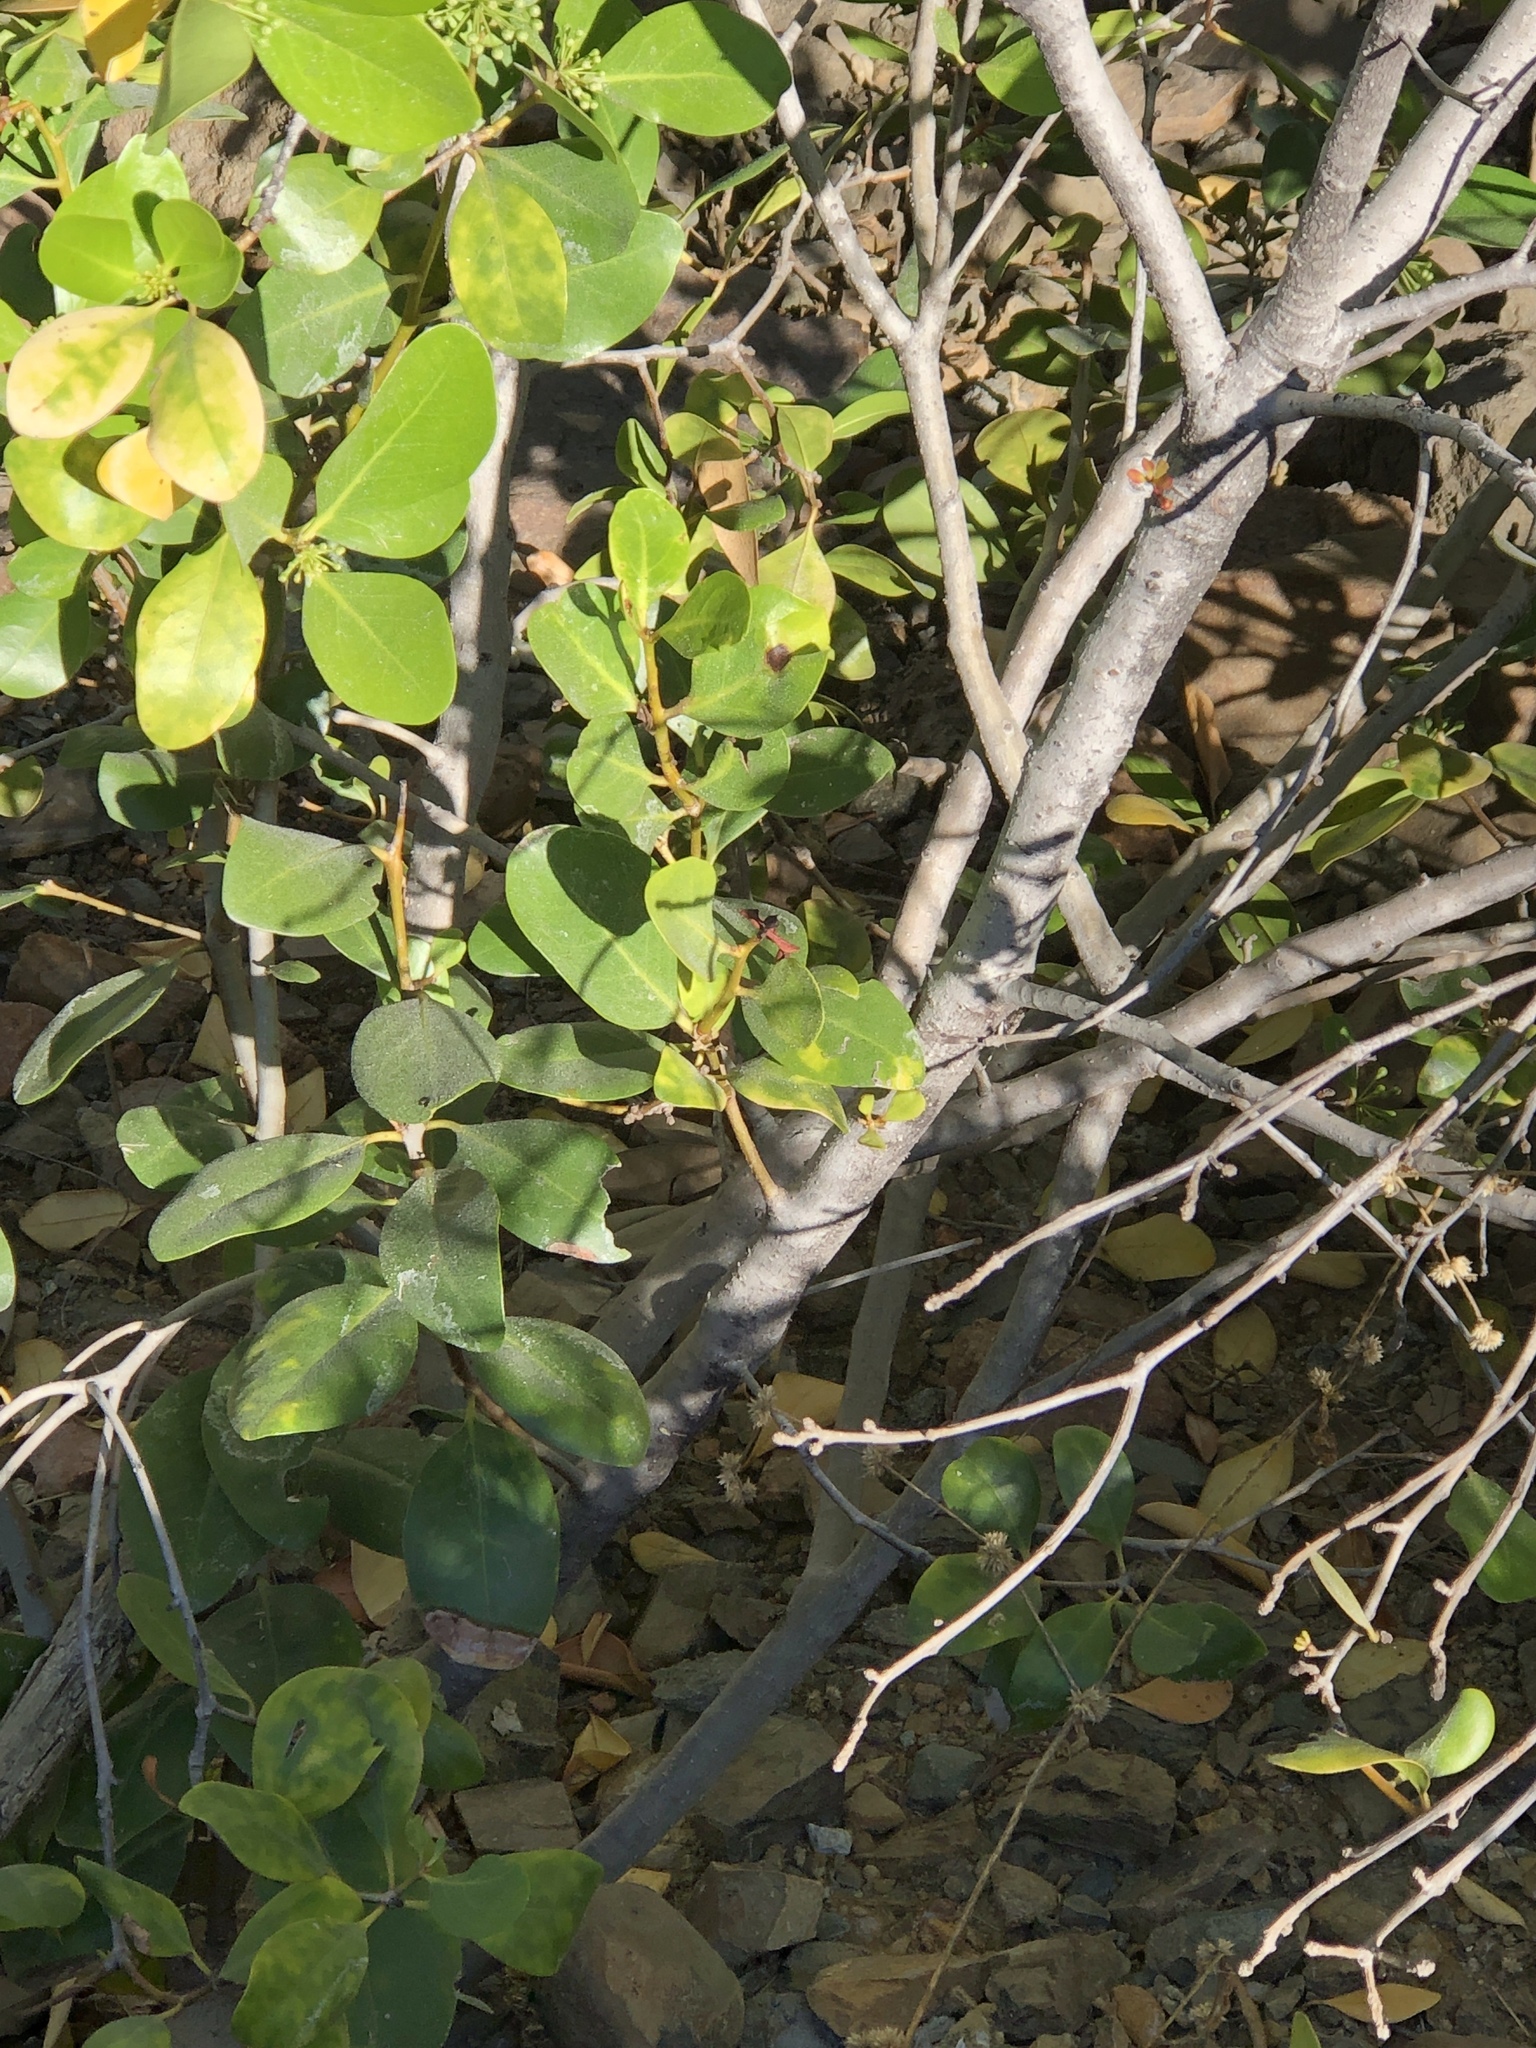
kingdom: Plantae
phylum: Tracheophyta
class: Magnoliopsida
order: Ericales
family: Primulaceae
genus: Aegiceras
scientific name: Aegiceras corniculatum
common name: River mangrove
